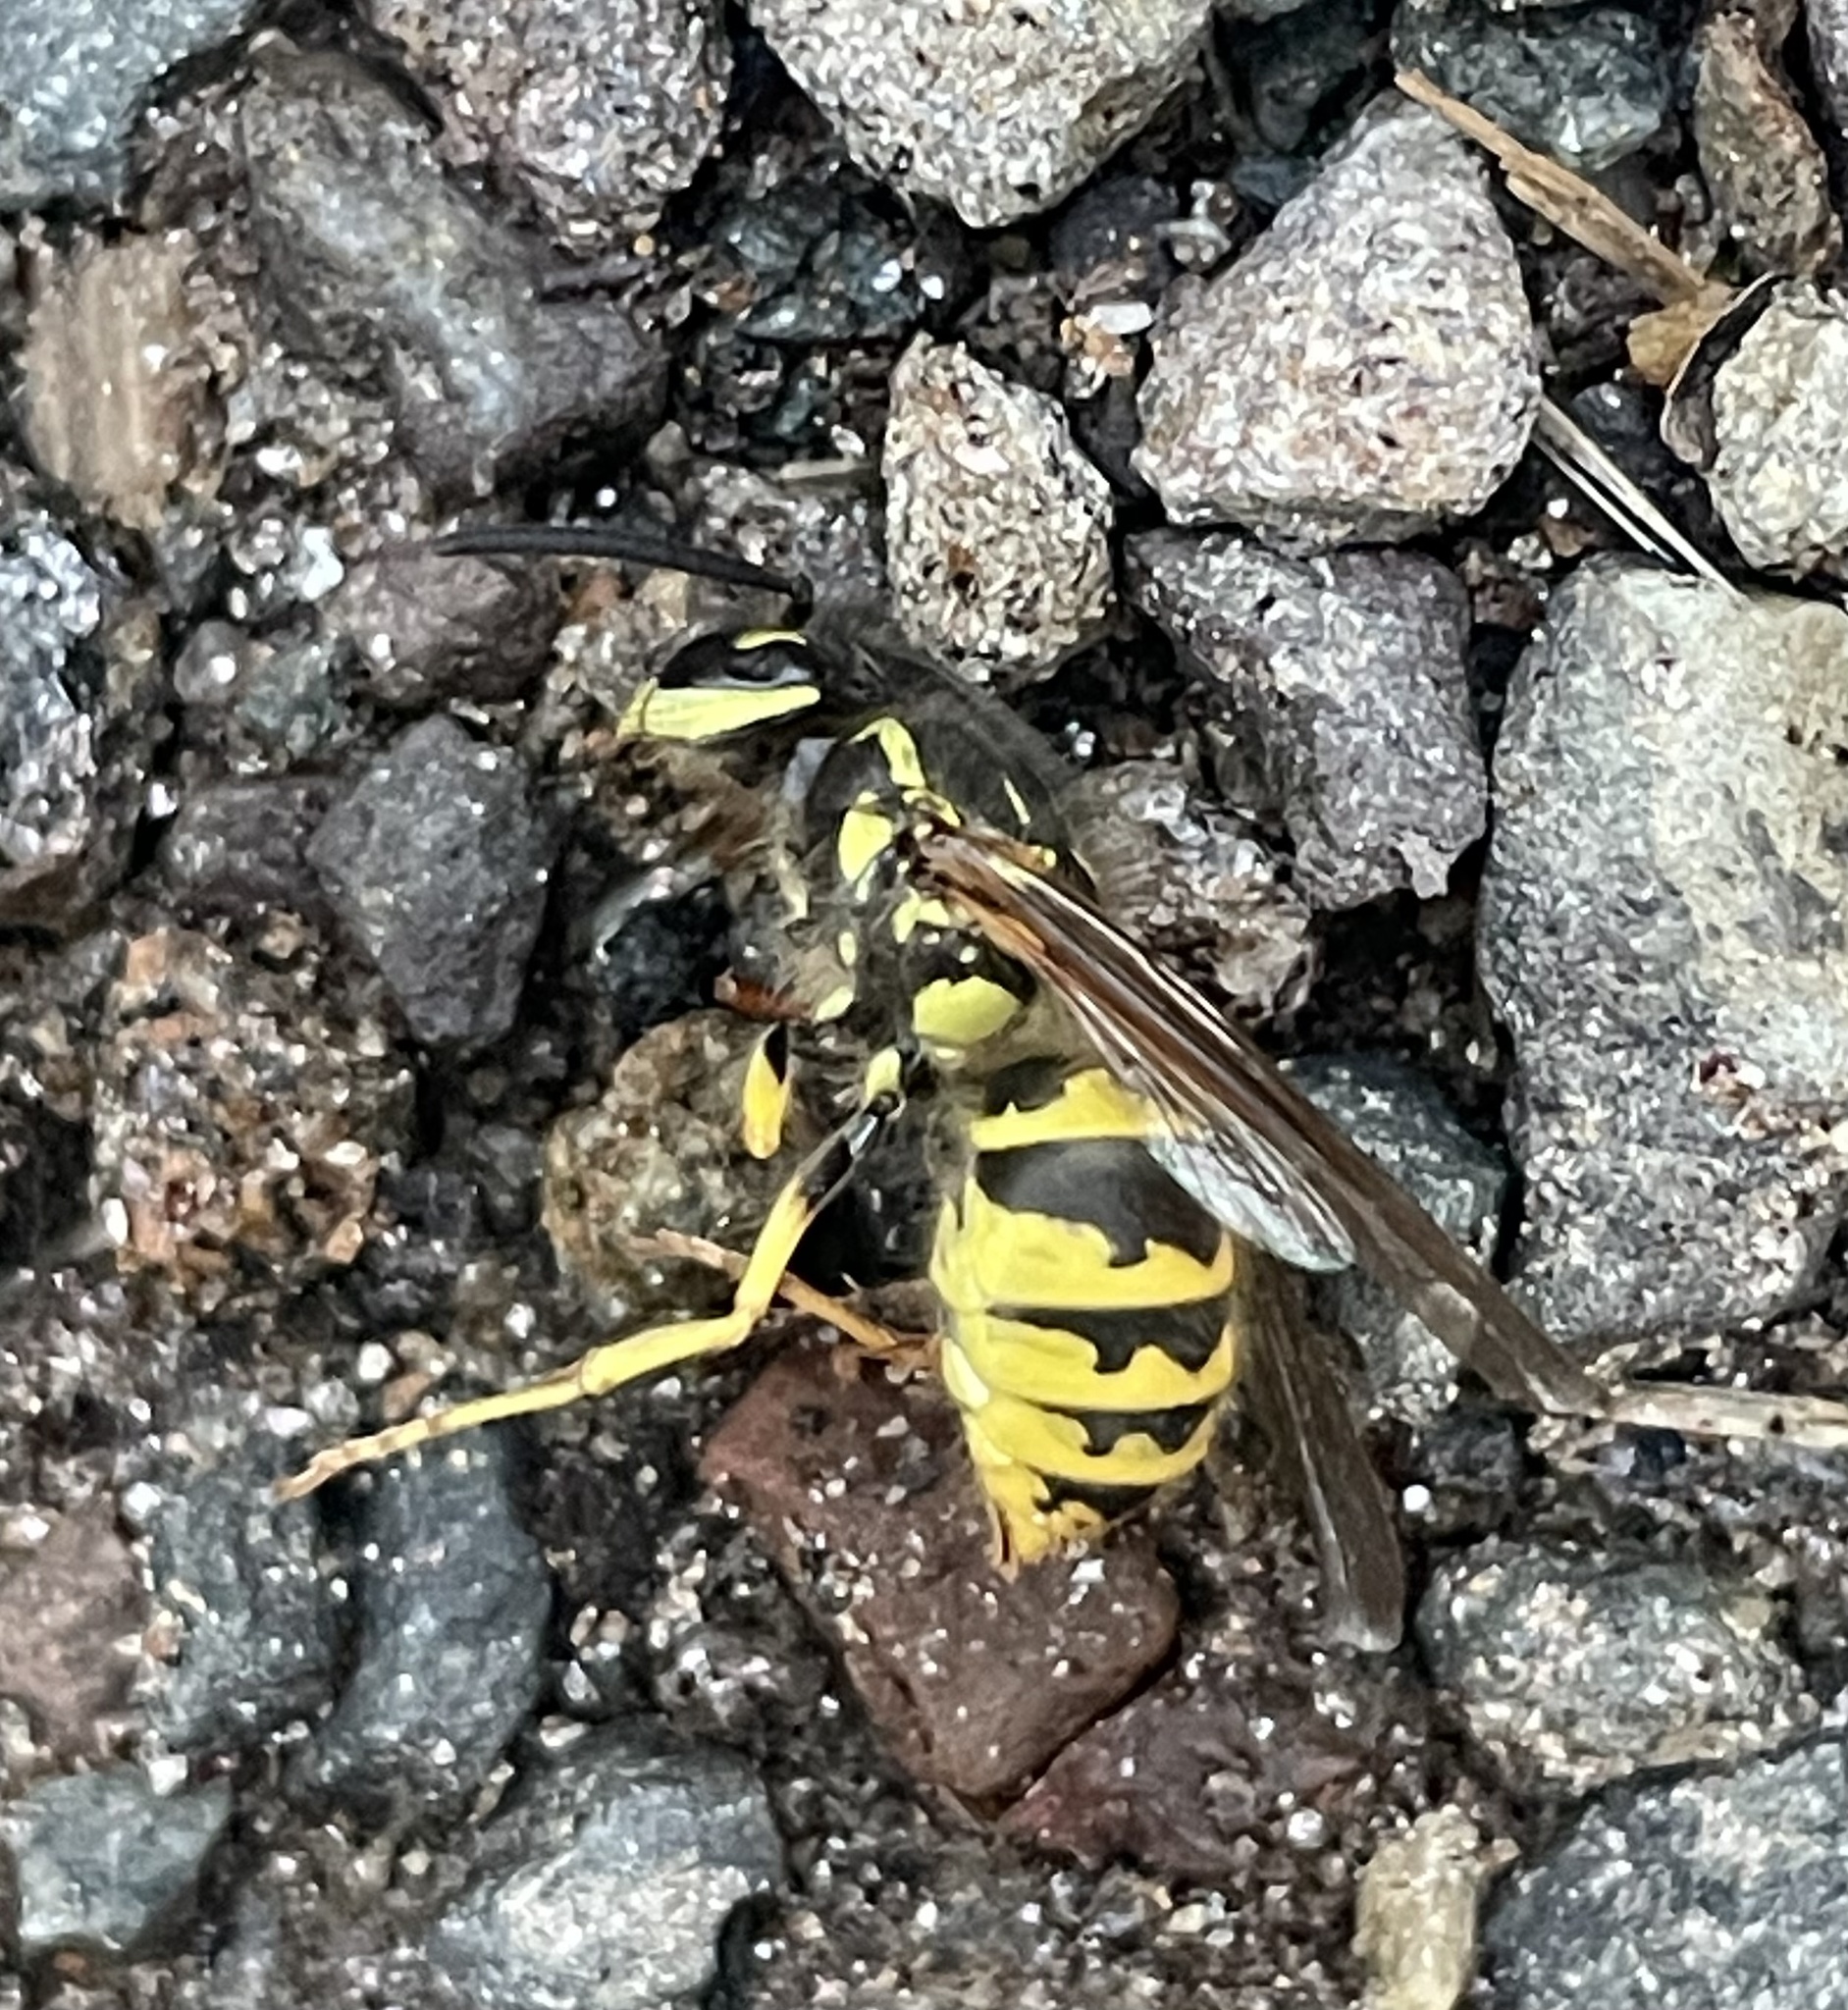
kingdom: Animalia
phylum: Arthropoda
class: Insecta
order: Hymenoptera
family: Vespidae
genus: Vespula
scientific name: Vespula flavopilosa
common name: Downy yellowjacket
